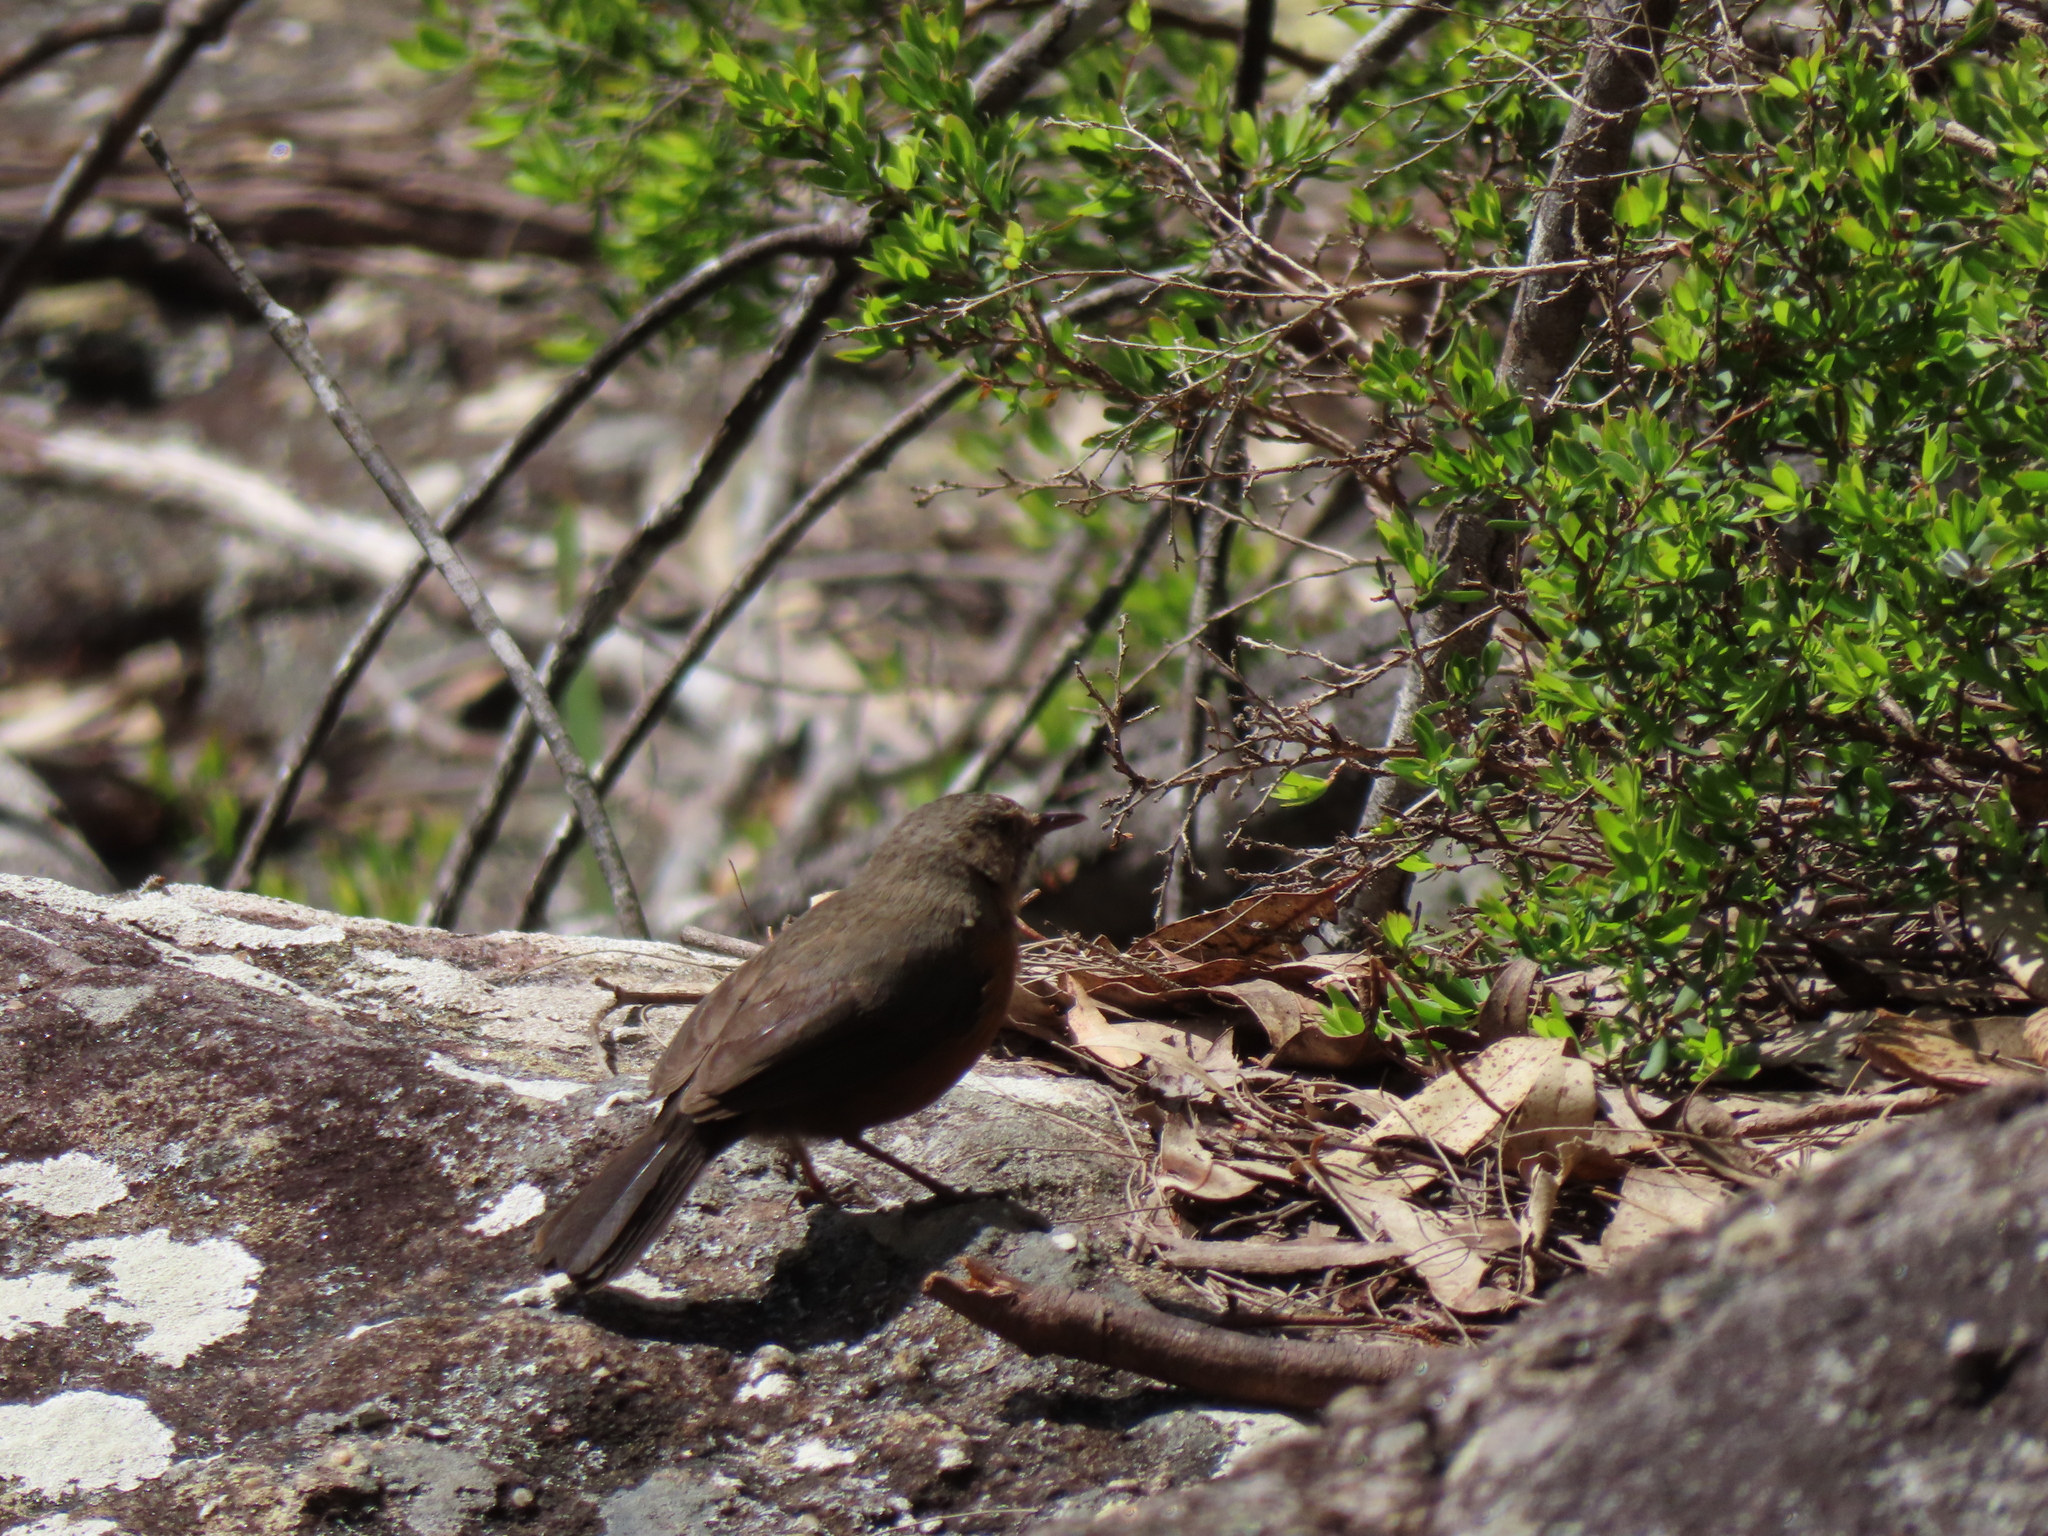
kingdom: Animalia
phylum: Chordata
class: Aves
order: Passeriformes
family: Acanthizidae
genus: Origma
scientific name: Origma solitaria
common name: Rockwarbler
